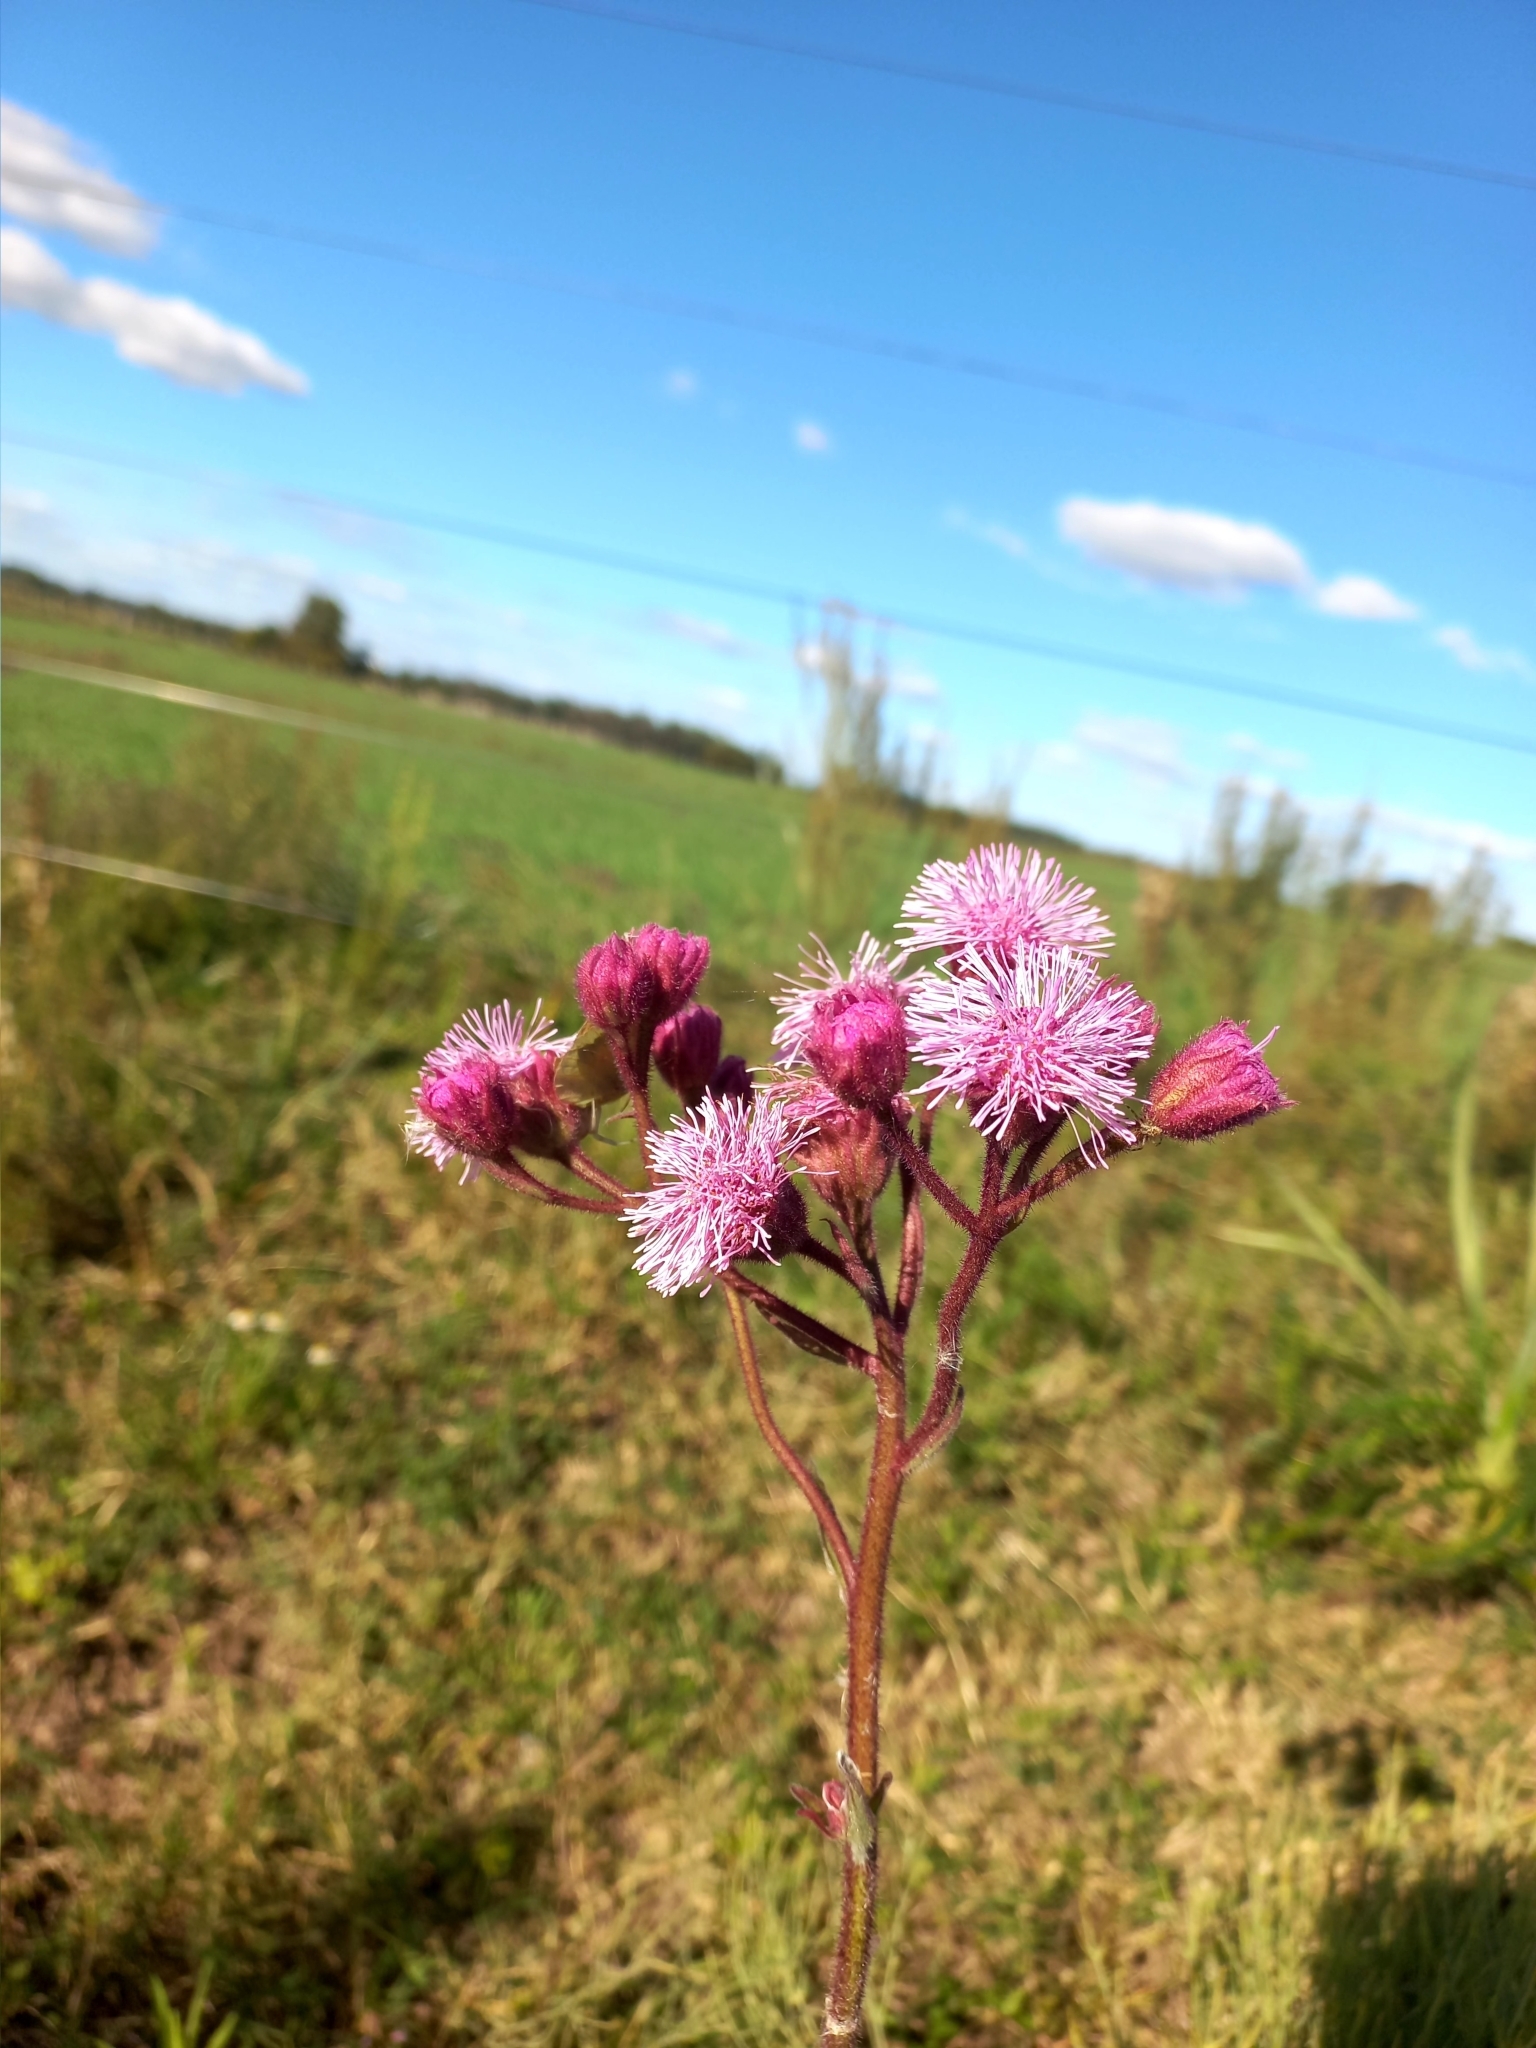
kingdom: Plantae
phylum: Tracheophyta
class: Magnoliopsida
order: Asterales
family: Asteraceae
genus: Campuloclinium
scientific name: Campuloclinium macrocephalum
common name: Pompomweed
